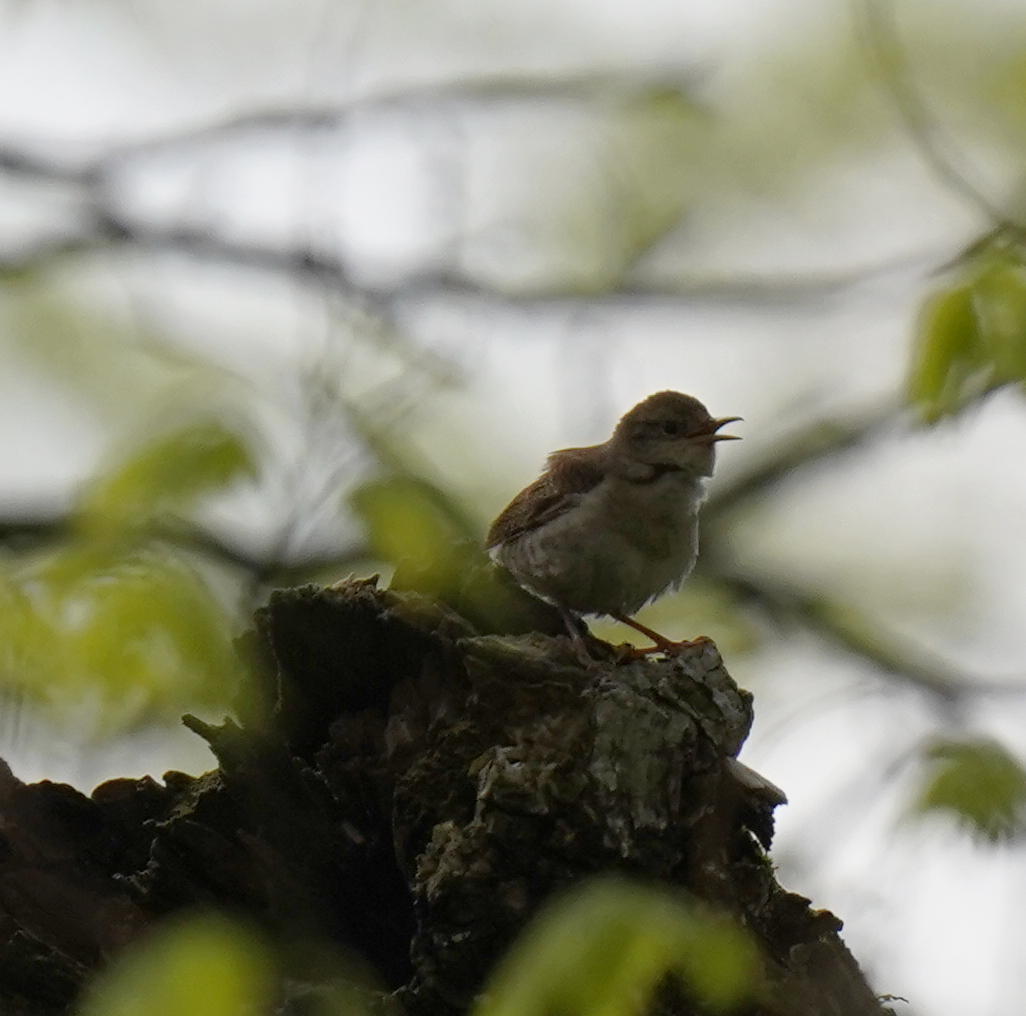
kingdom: Animalia
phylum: Chordata
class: Aves
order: Passeriformes
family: Troglodytidae
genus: Troglodytes
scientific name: Troglodytes aedon
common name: House wren
